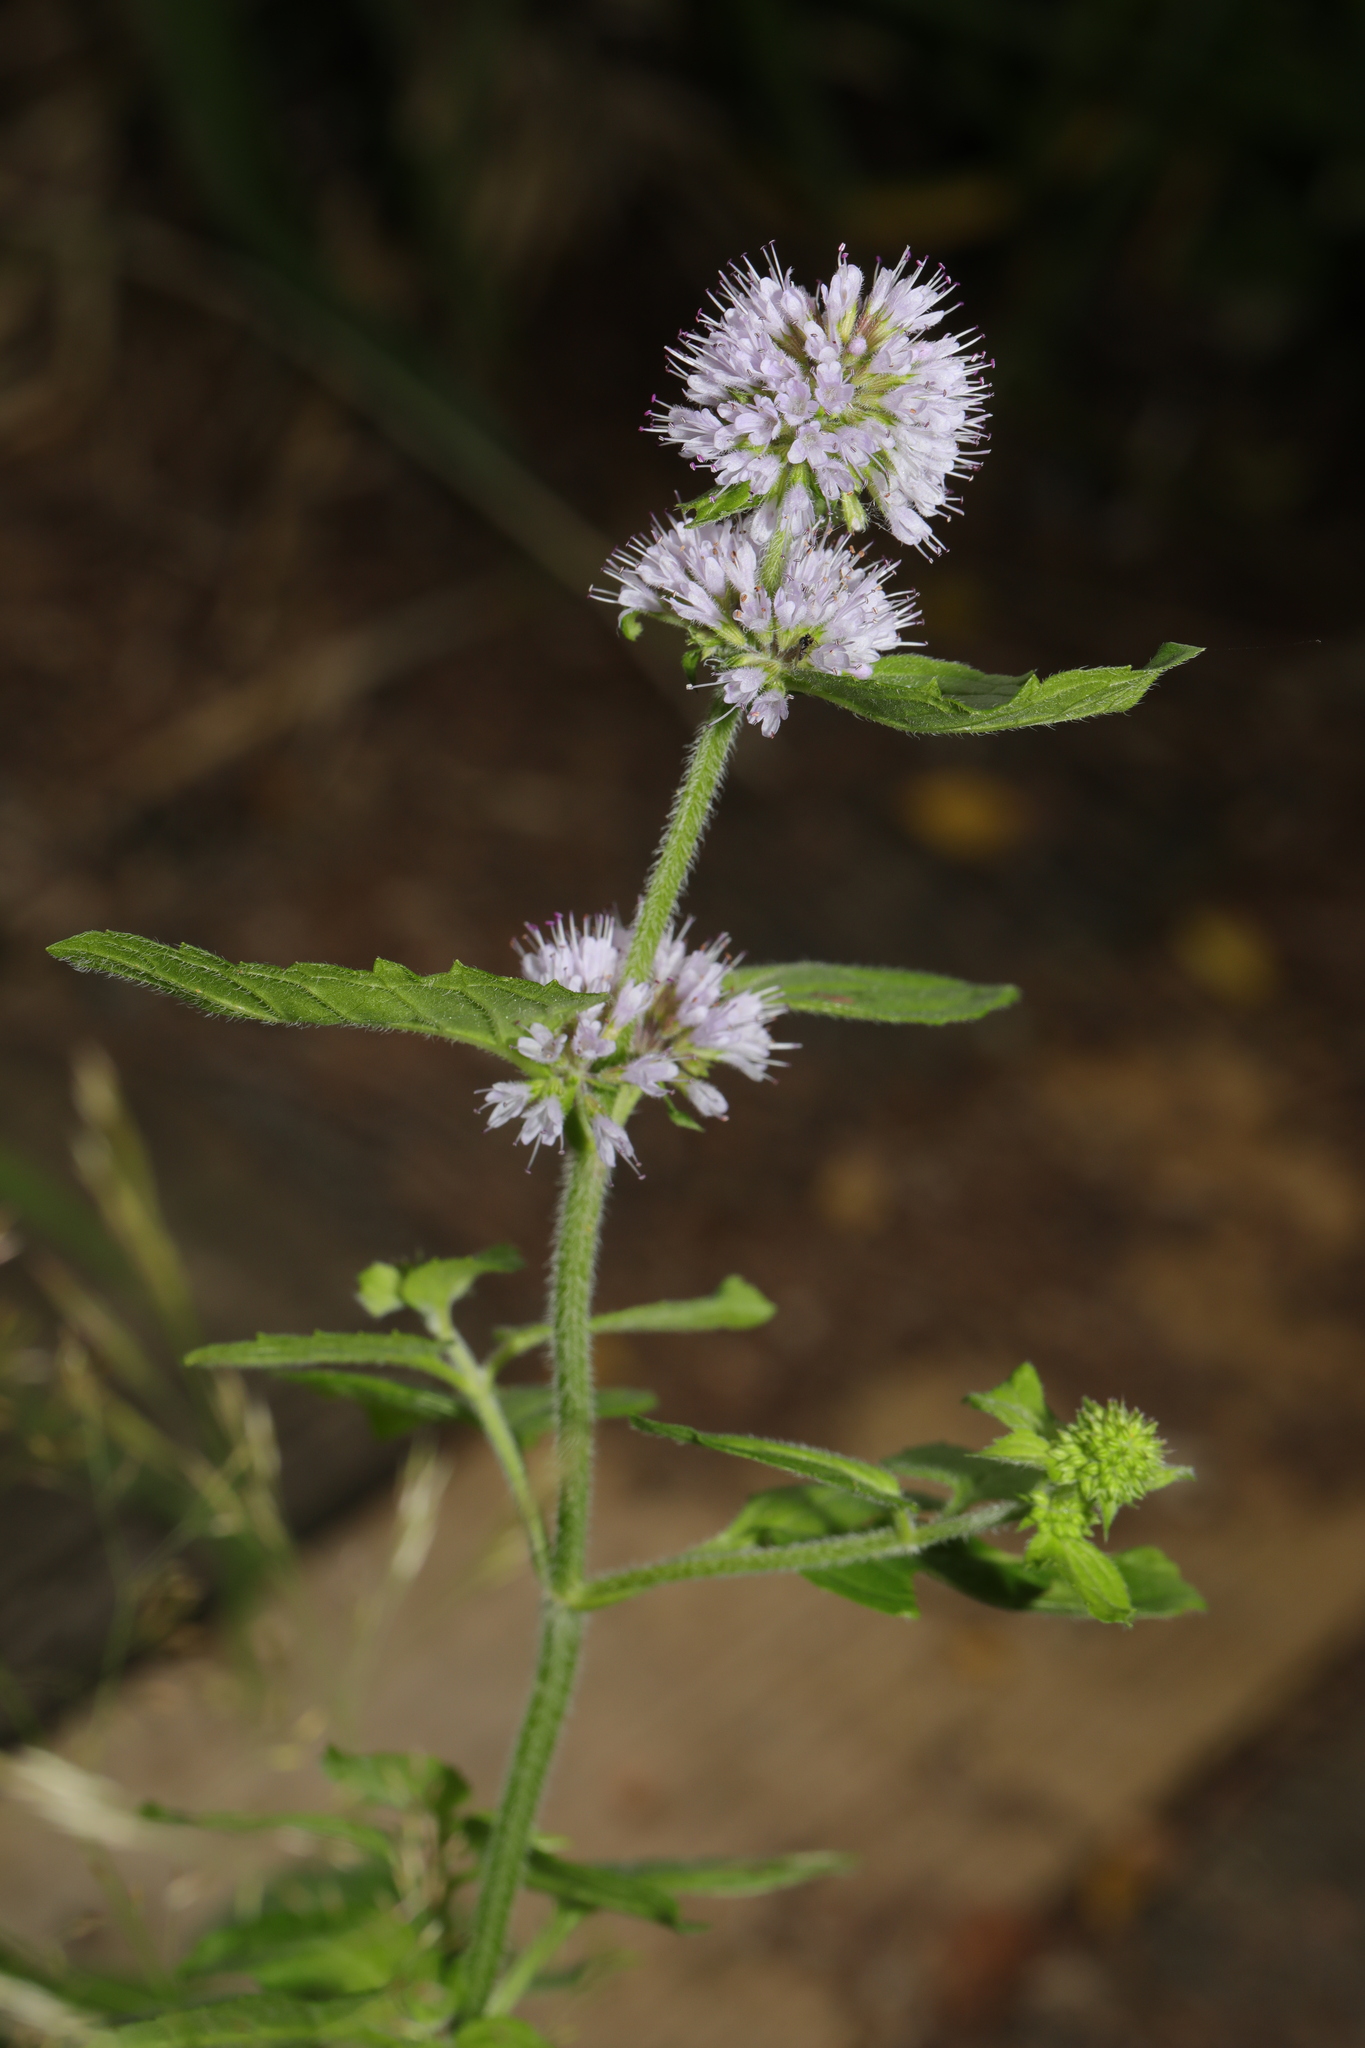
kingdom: Plantae
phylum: Tracheophyta
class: Magnoliopsida
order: Lamiales
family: Lamiaceae
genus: Mentha
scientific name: Mentha aquatica
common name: Water mint
